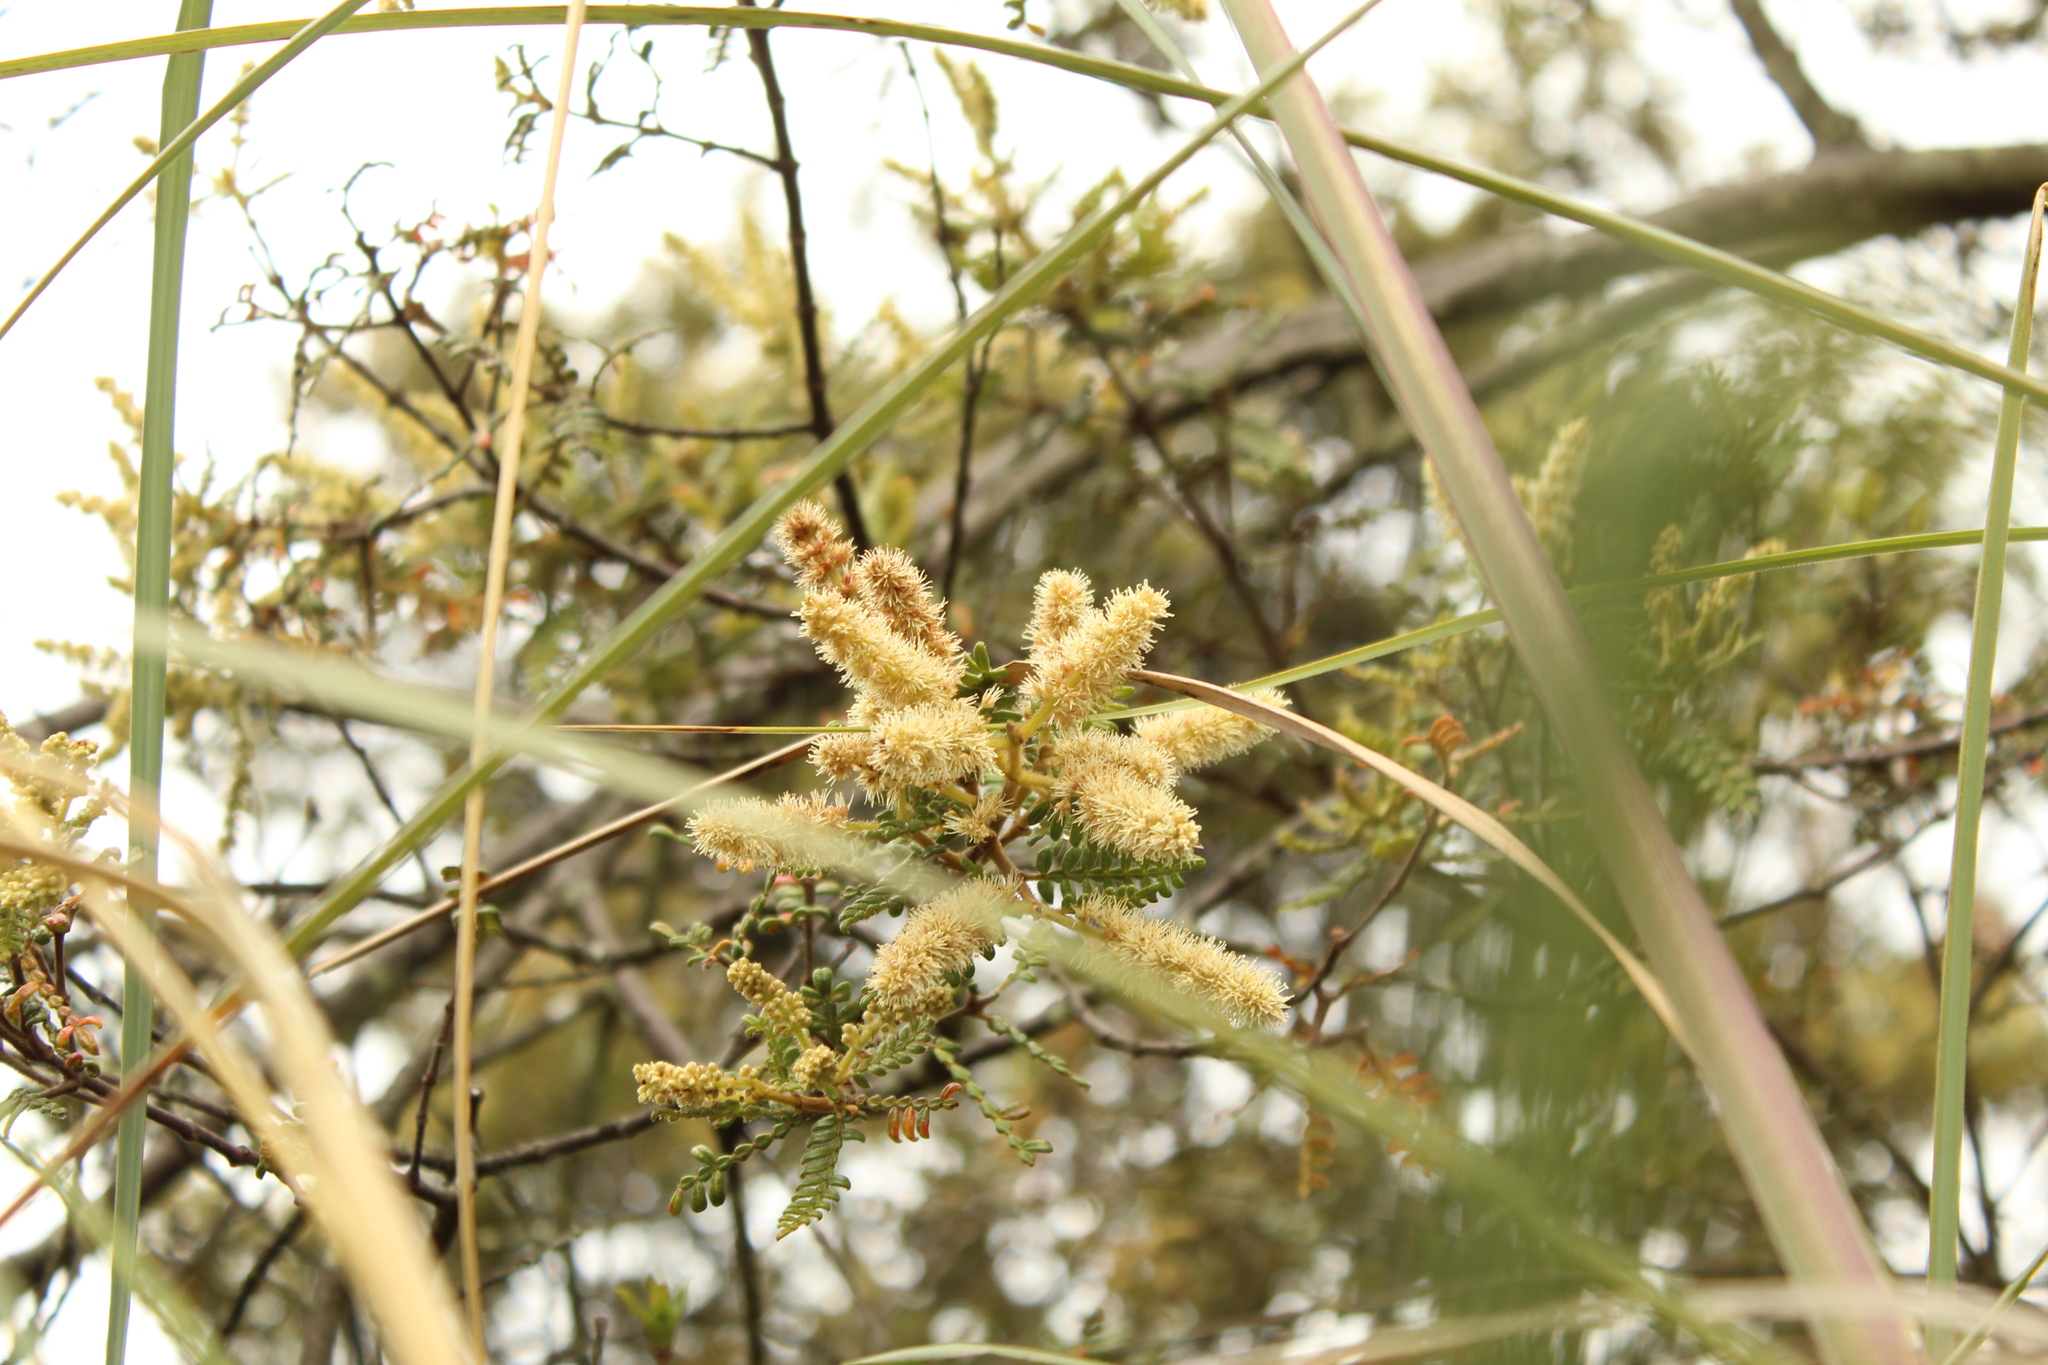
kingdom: Plantae
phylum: Tracheophyta
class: Magnoliopsida
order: Oxalidales
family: Cunoniaceae
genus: Weinmannia
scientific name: Weinmannia tomentosa
